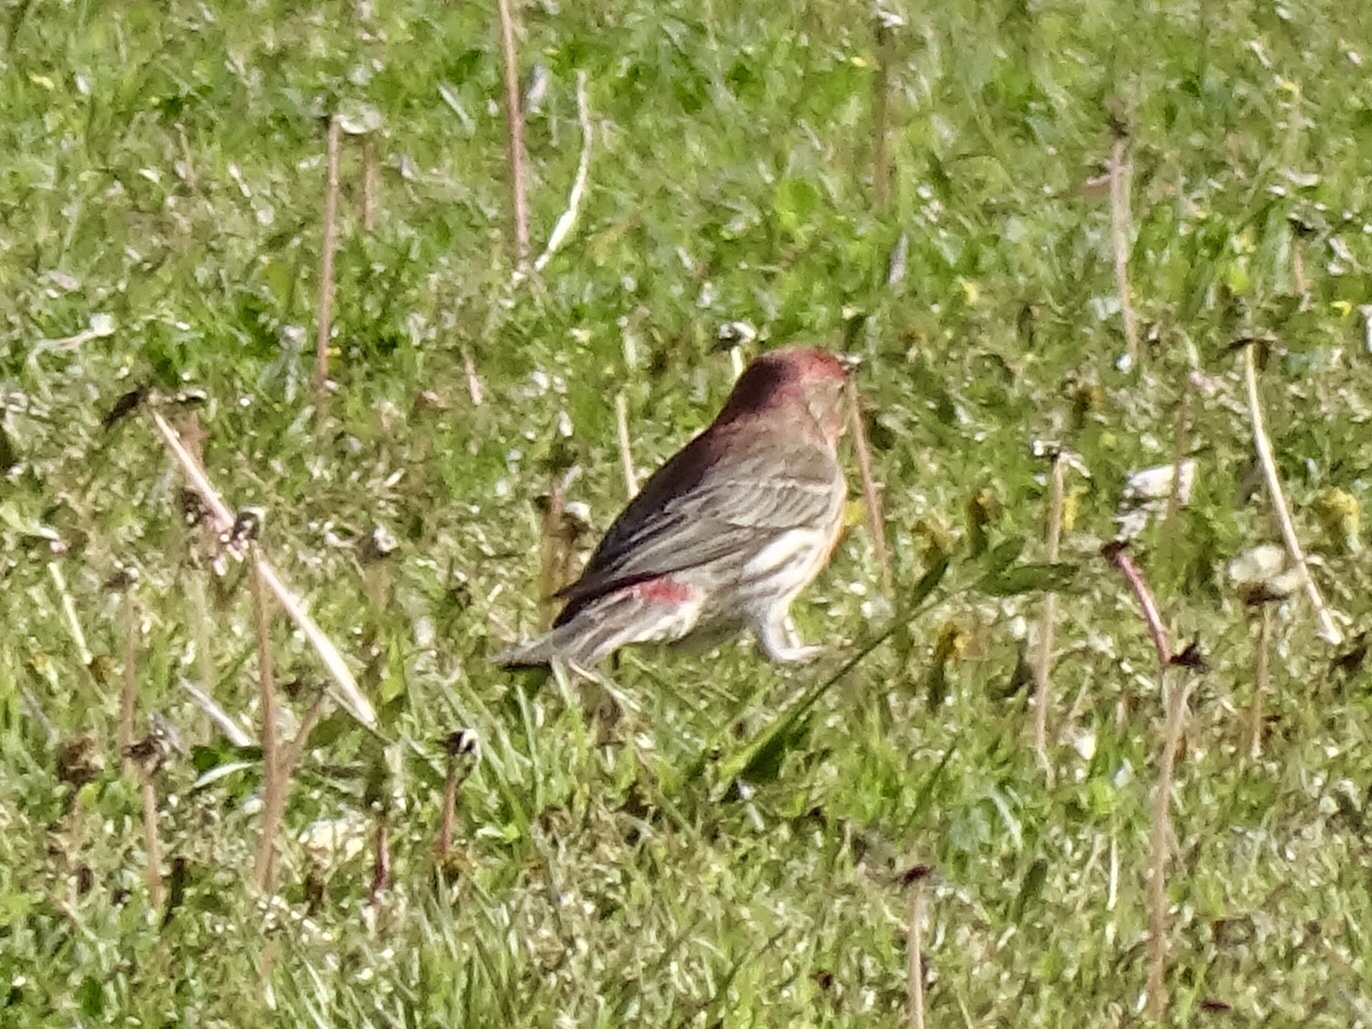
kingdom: Animalia
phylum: Chordata
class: Aves
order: Passeriformes
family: Fringillidae
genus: Haemorhous
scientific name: Haemorhous mexicanus
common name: House finch
